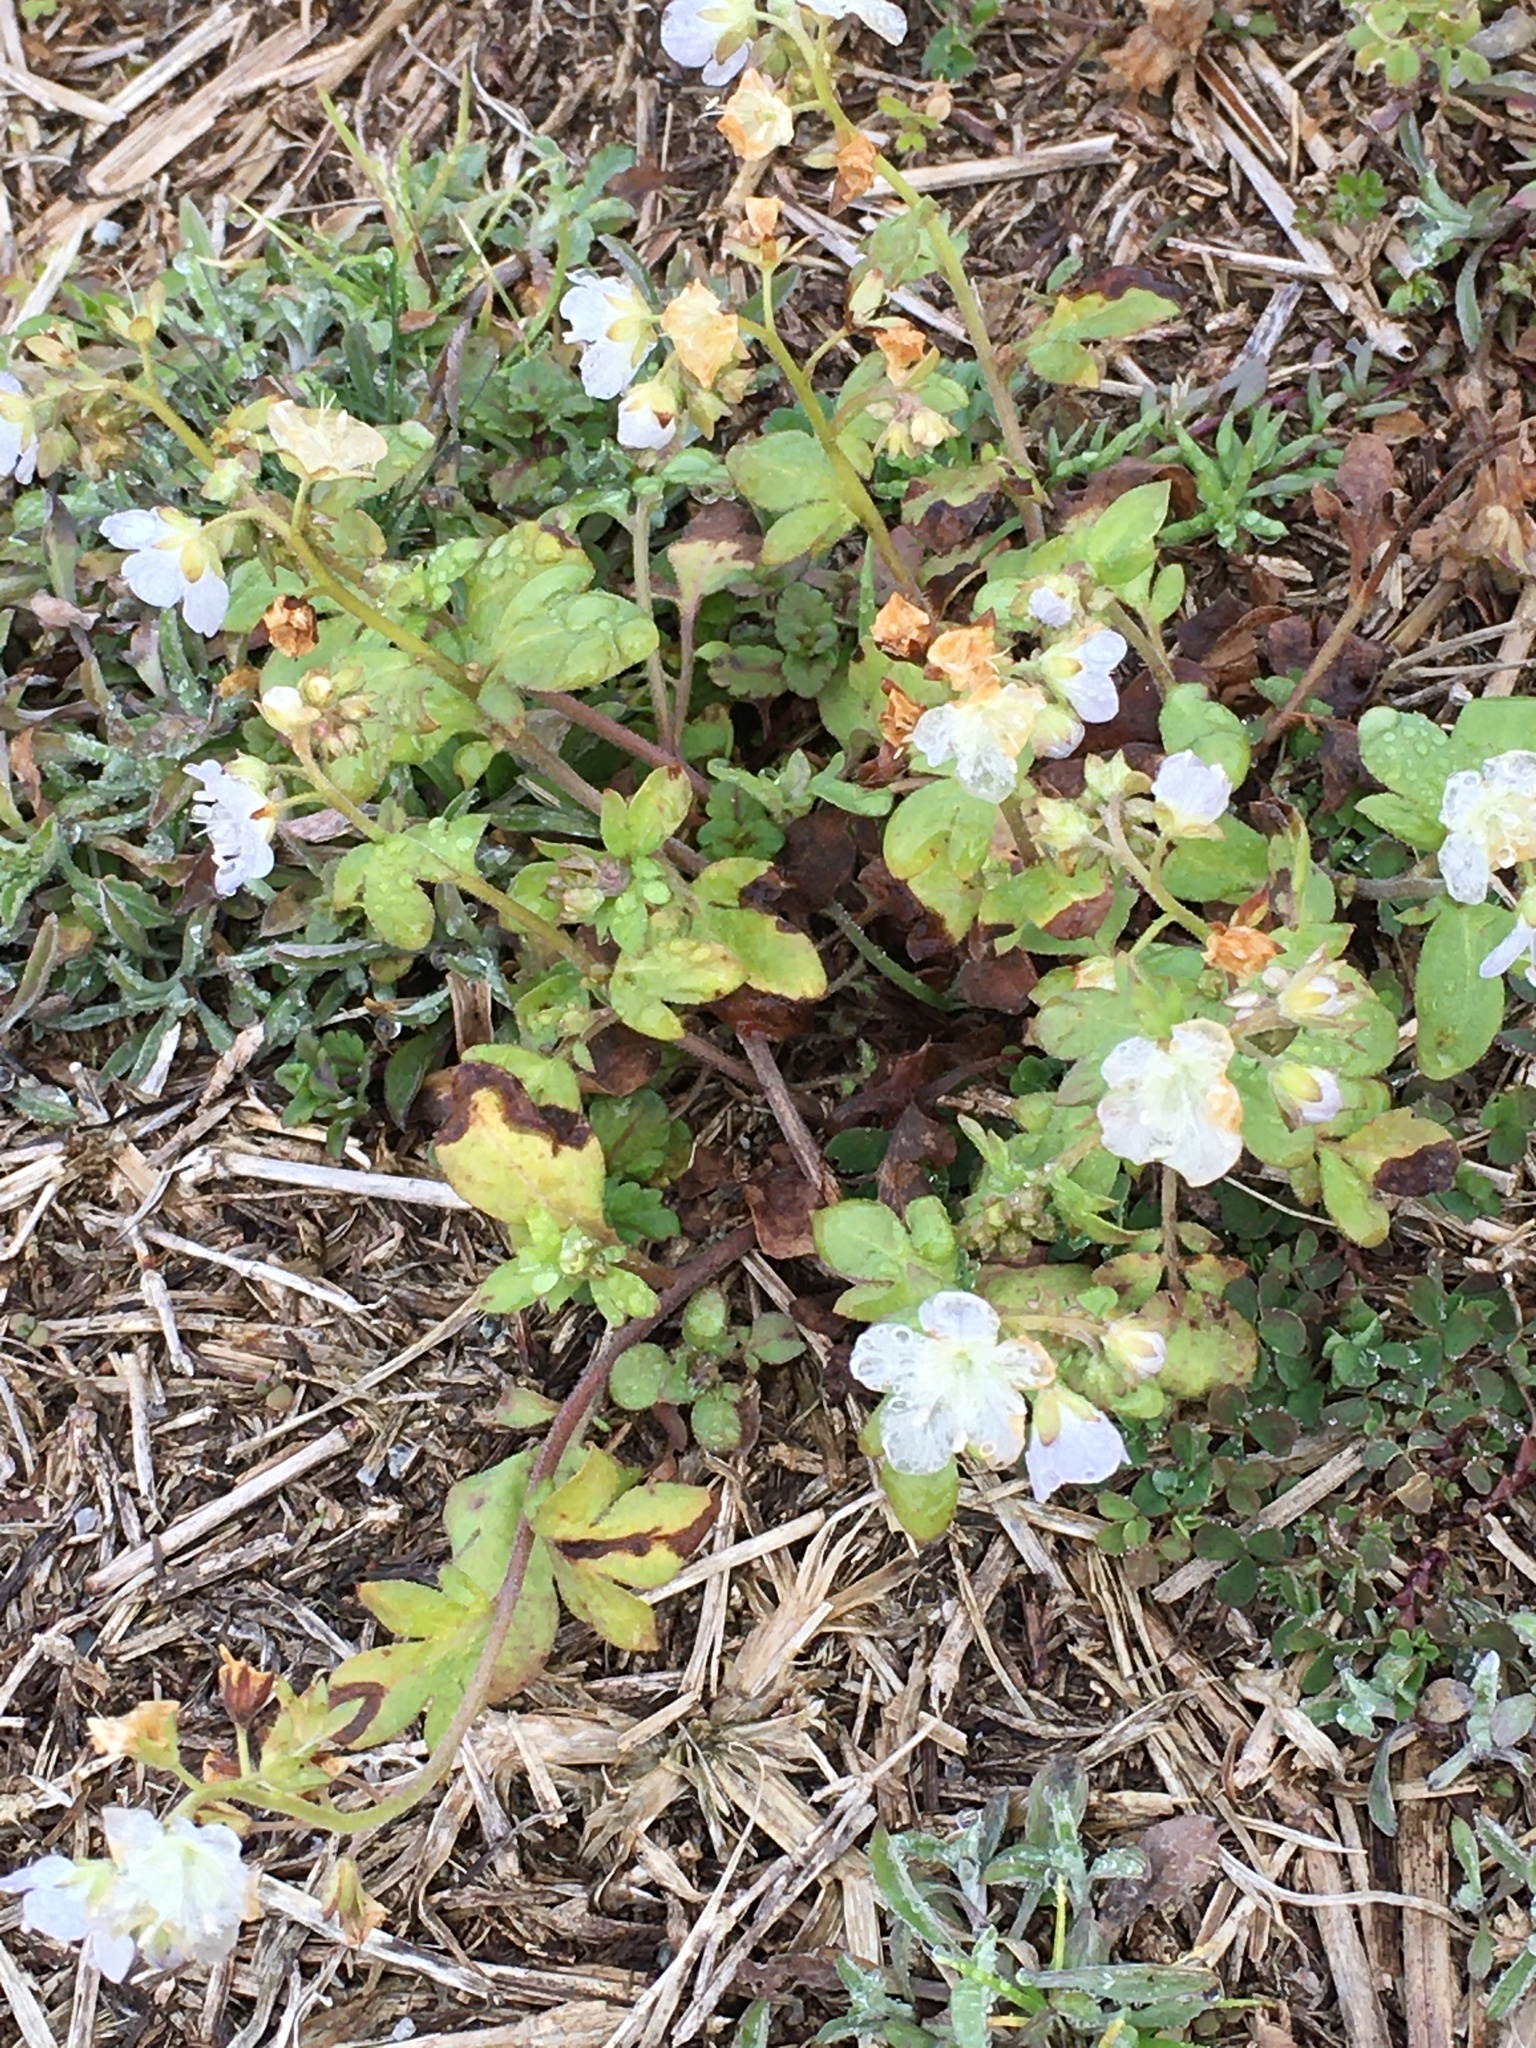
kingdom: Plantae
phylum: Tracheophyta
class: Magnoliopsida
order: Boraginales
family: Hydrophyllaceae
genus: Phacelia
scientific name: Phacelia dubia
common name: Appalachian phacelia
